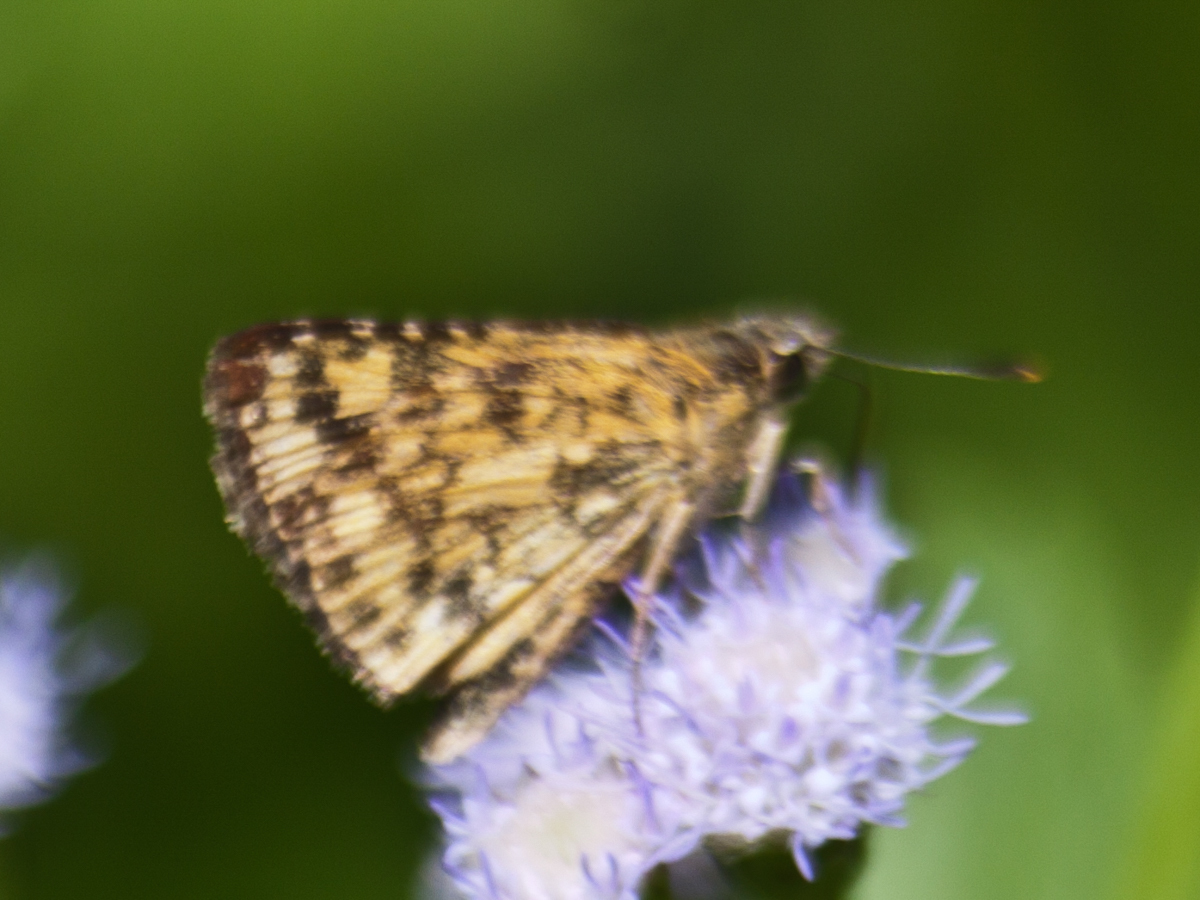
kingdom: Animalia
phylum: Arthropoda
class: Insecta
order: Lepidoptera
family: Hesperiidae
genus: Ampittia
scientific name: Ampittia dioscorides
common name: Common bush hopper
